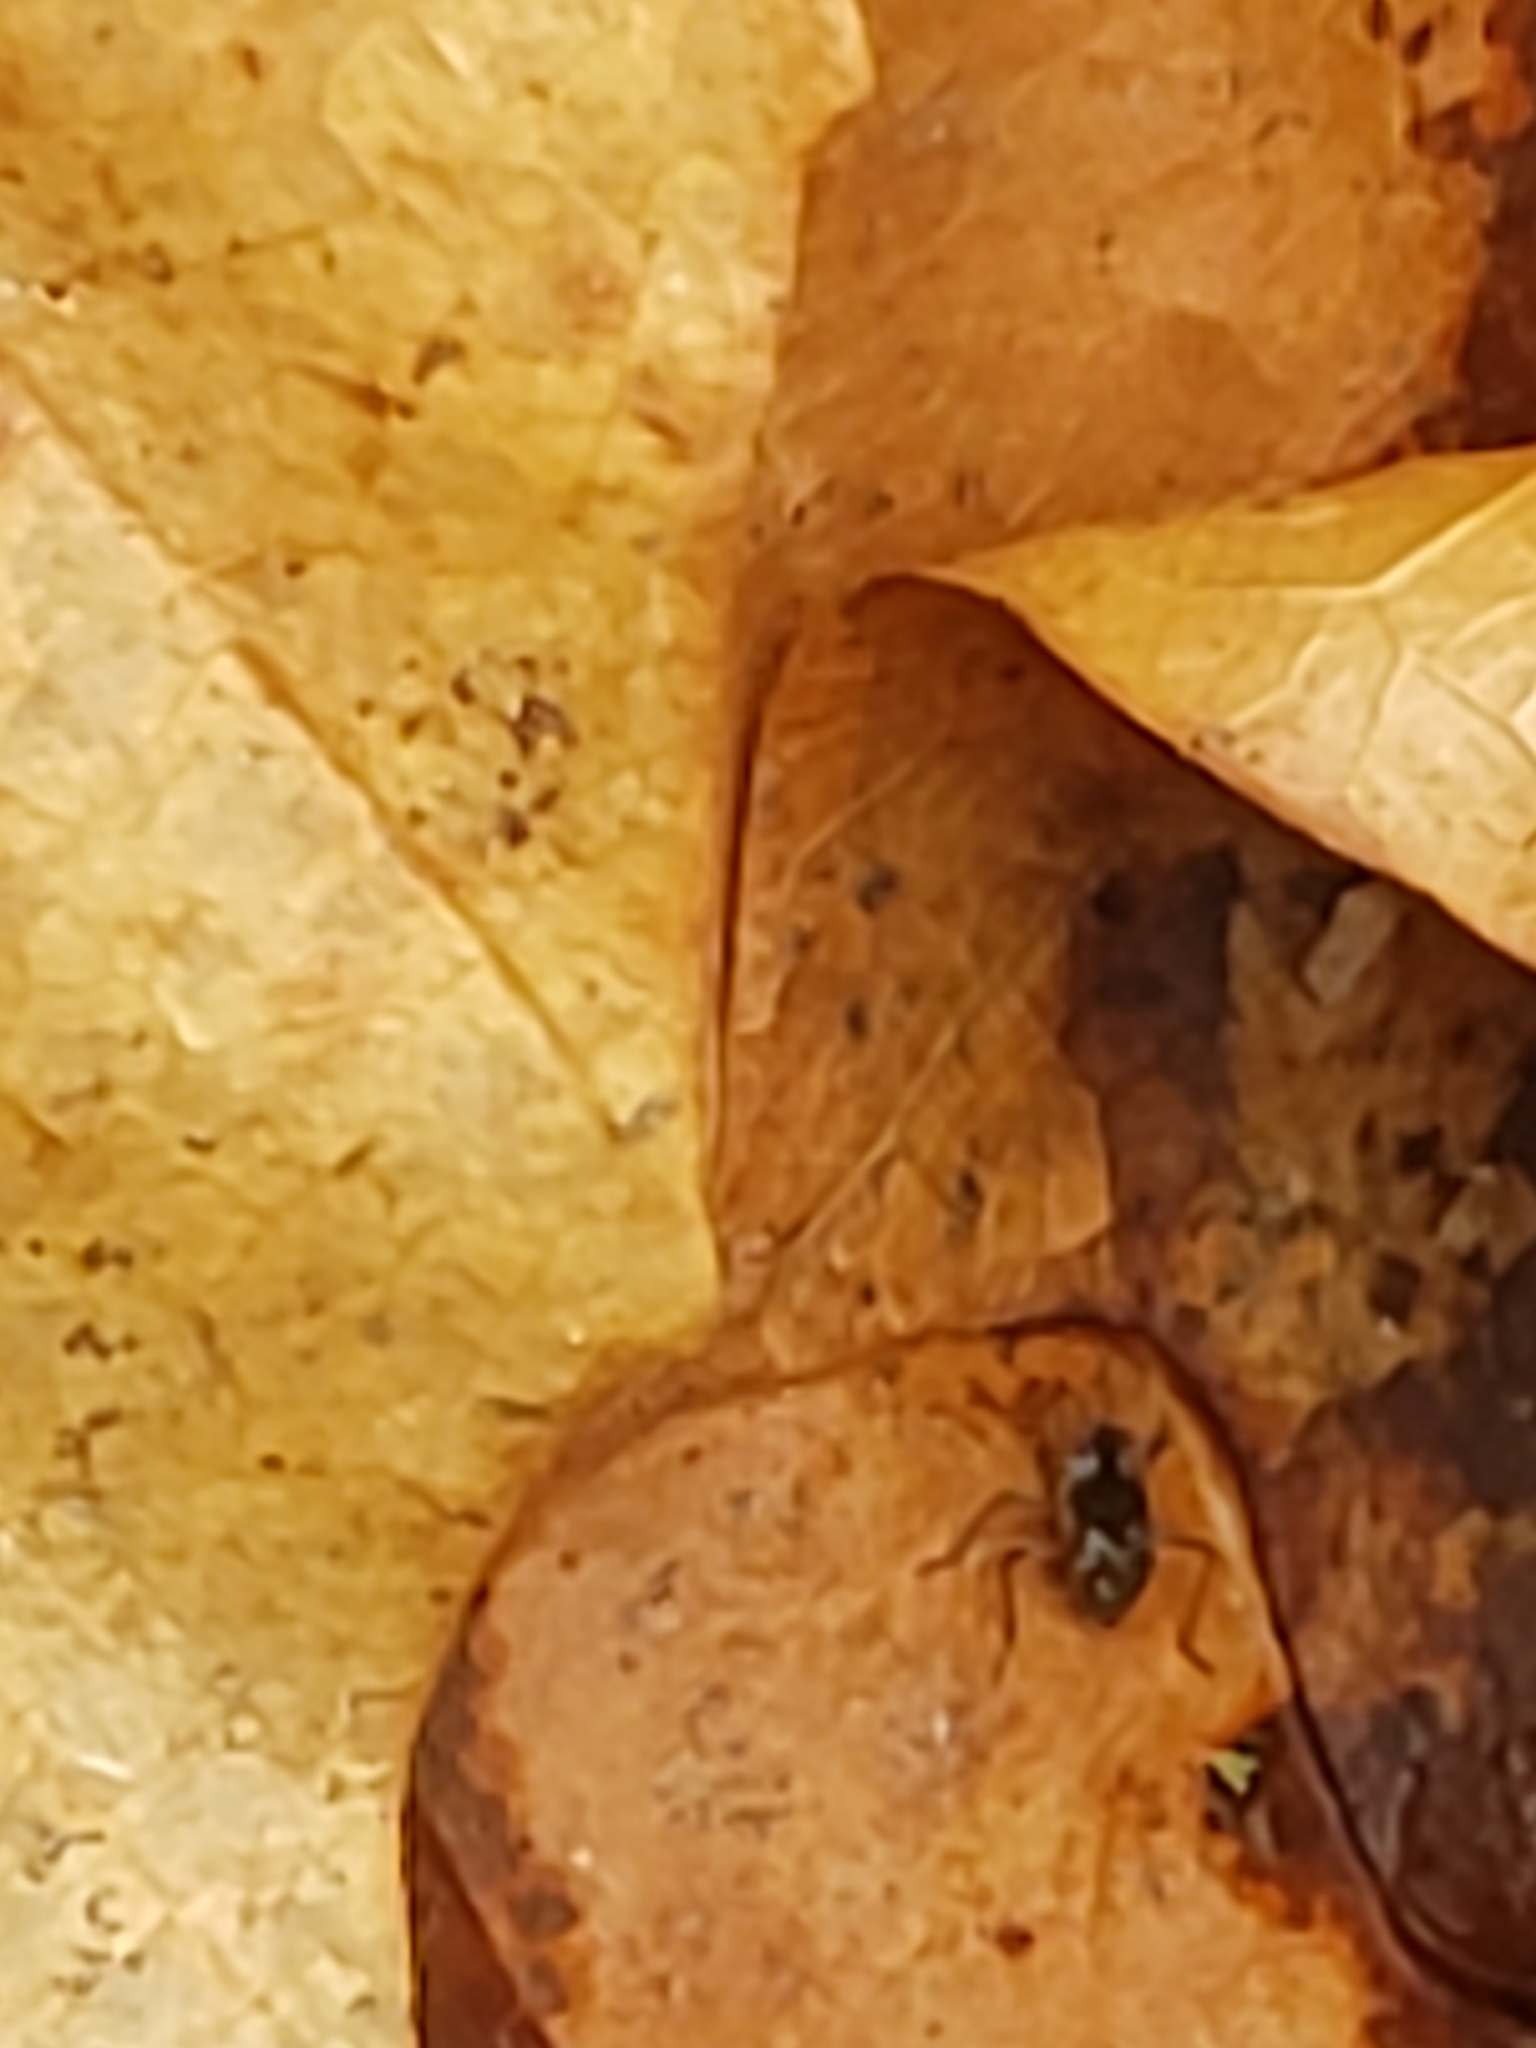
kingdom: Animalia
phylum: Arthropoda
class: Insecta
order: Hemiptera
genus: Kirkaldya
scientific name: Kirkaldya
